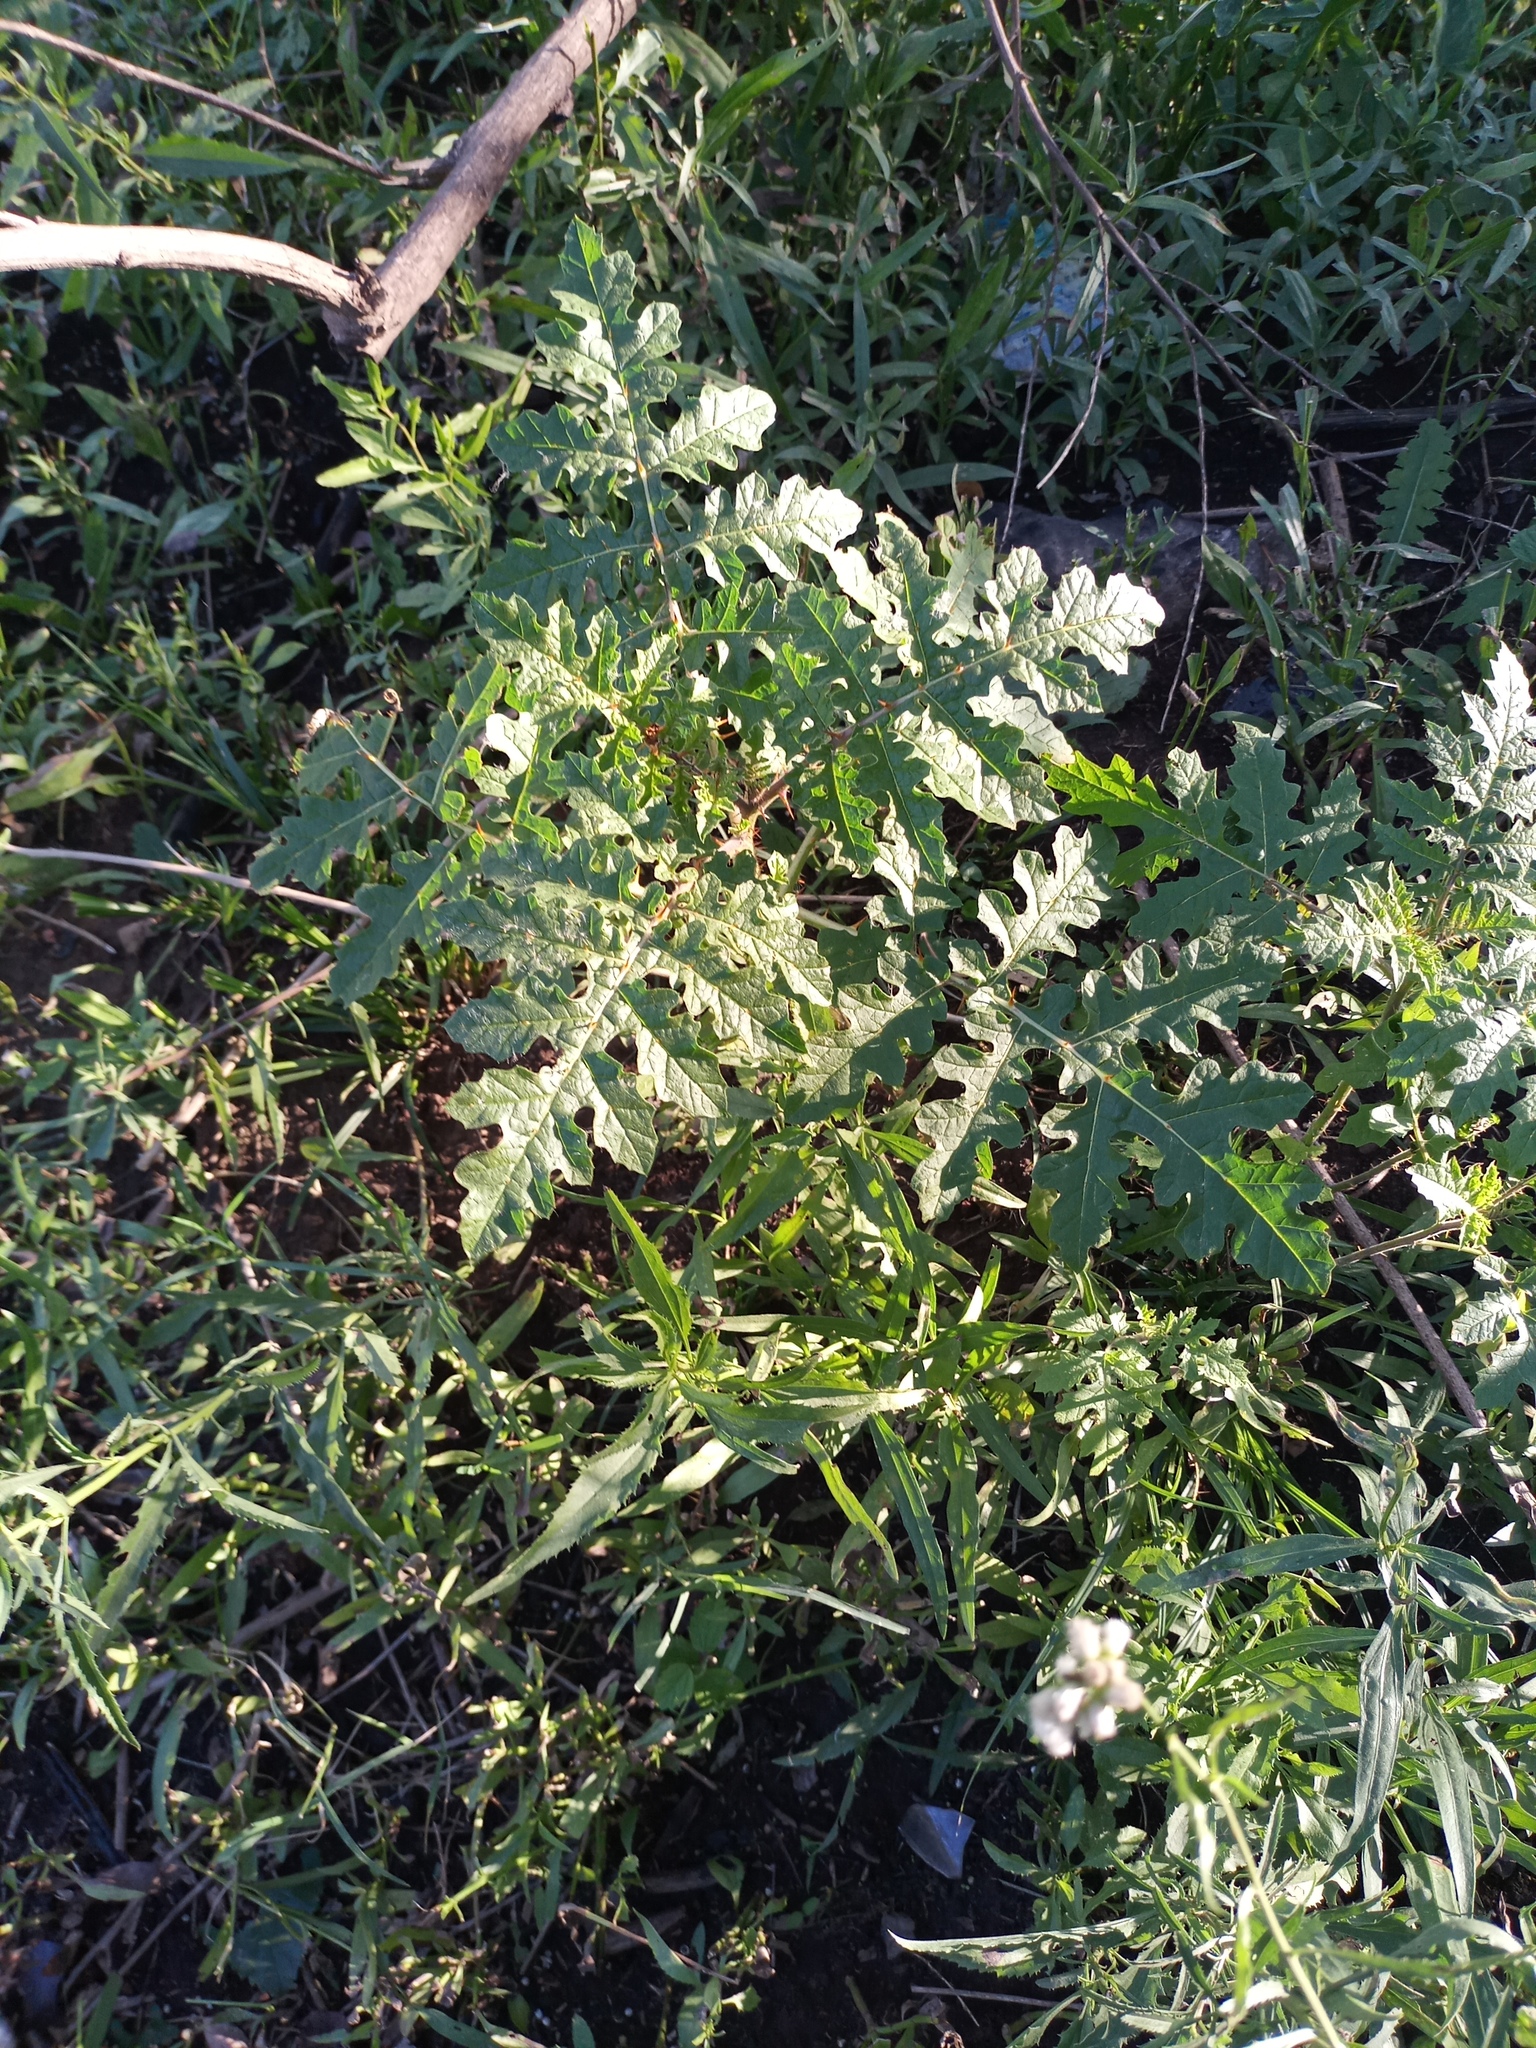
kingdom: Plantae
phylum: Tracheophyta
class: Magnoliopsida
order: Solanales
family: Solanaceae
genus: Solanum
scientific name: Solanum sisymbriifolium
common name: Red buffalo-bur
